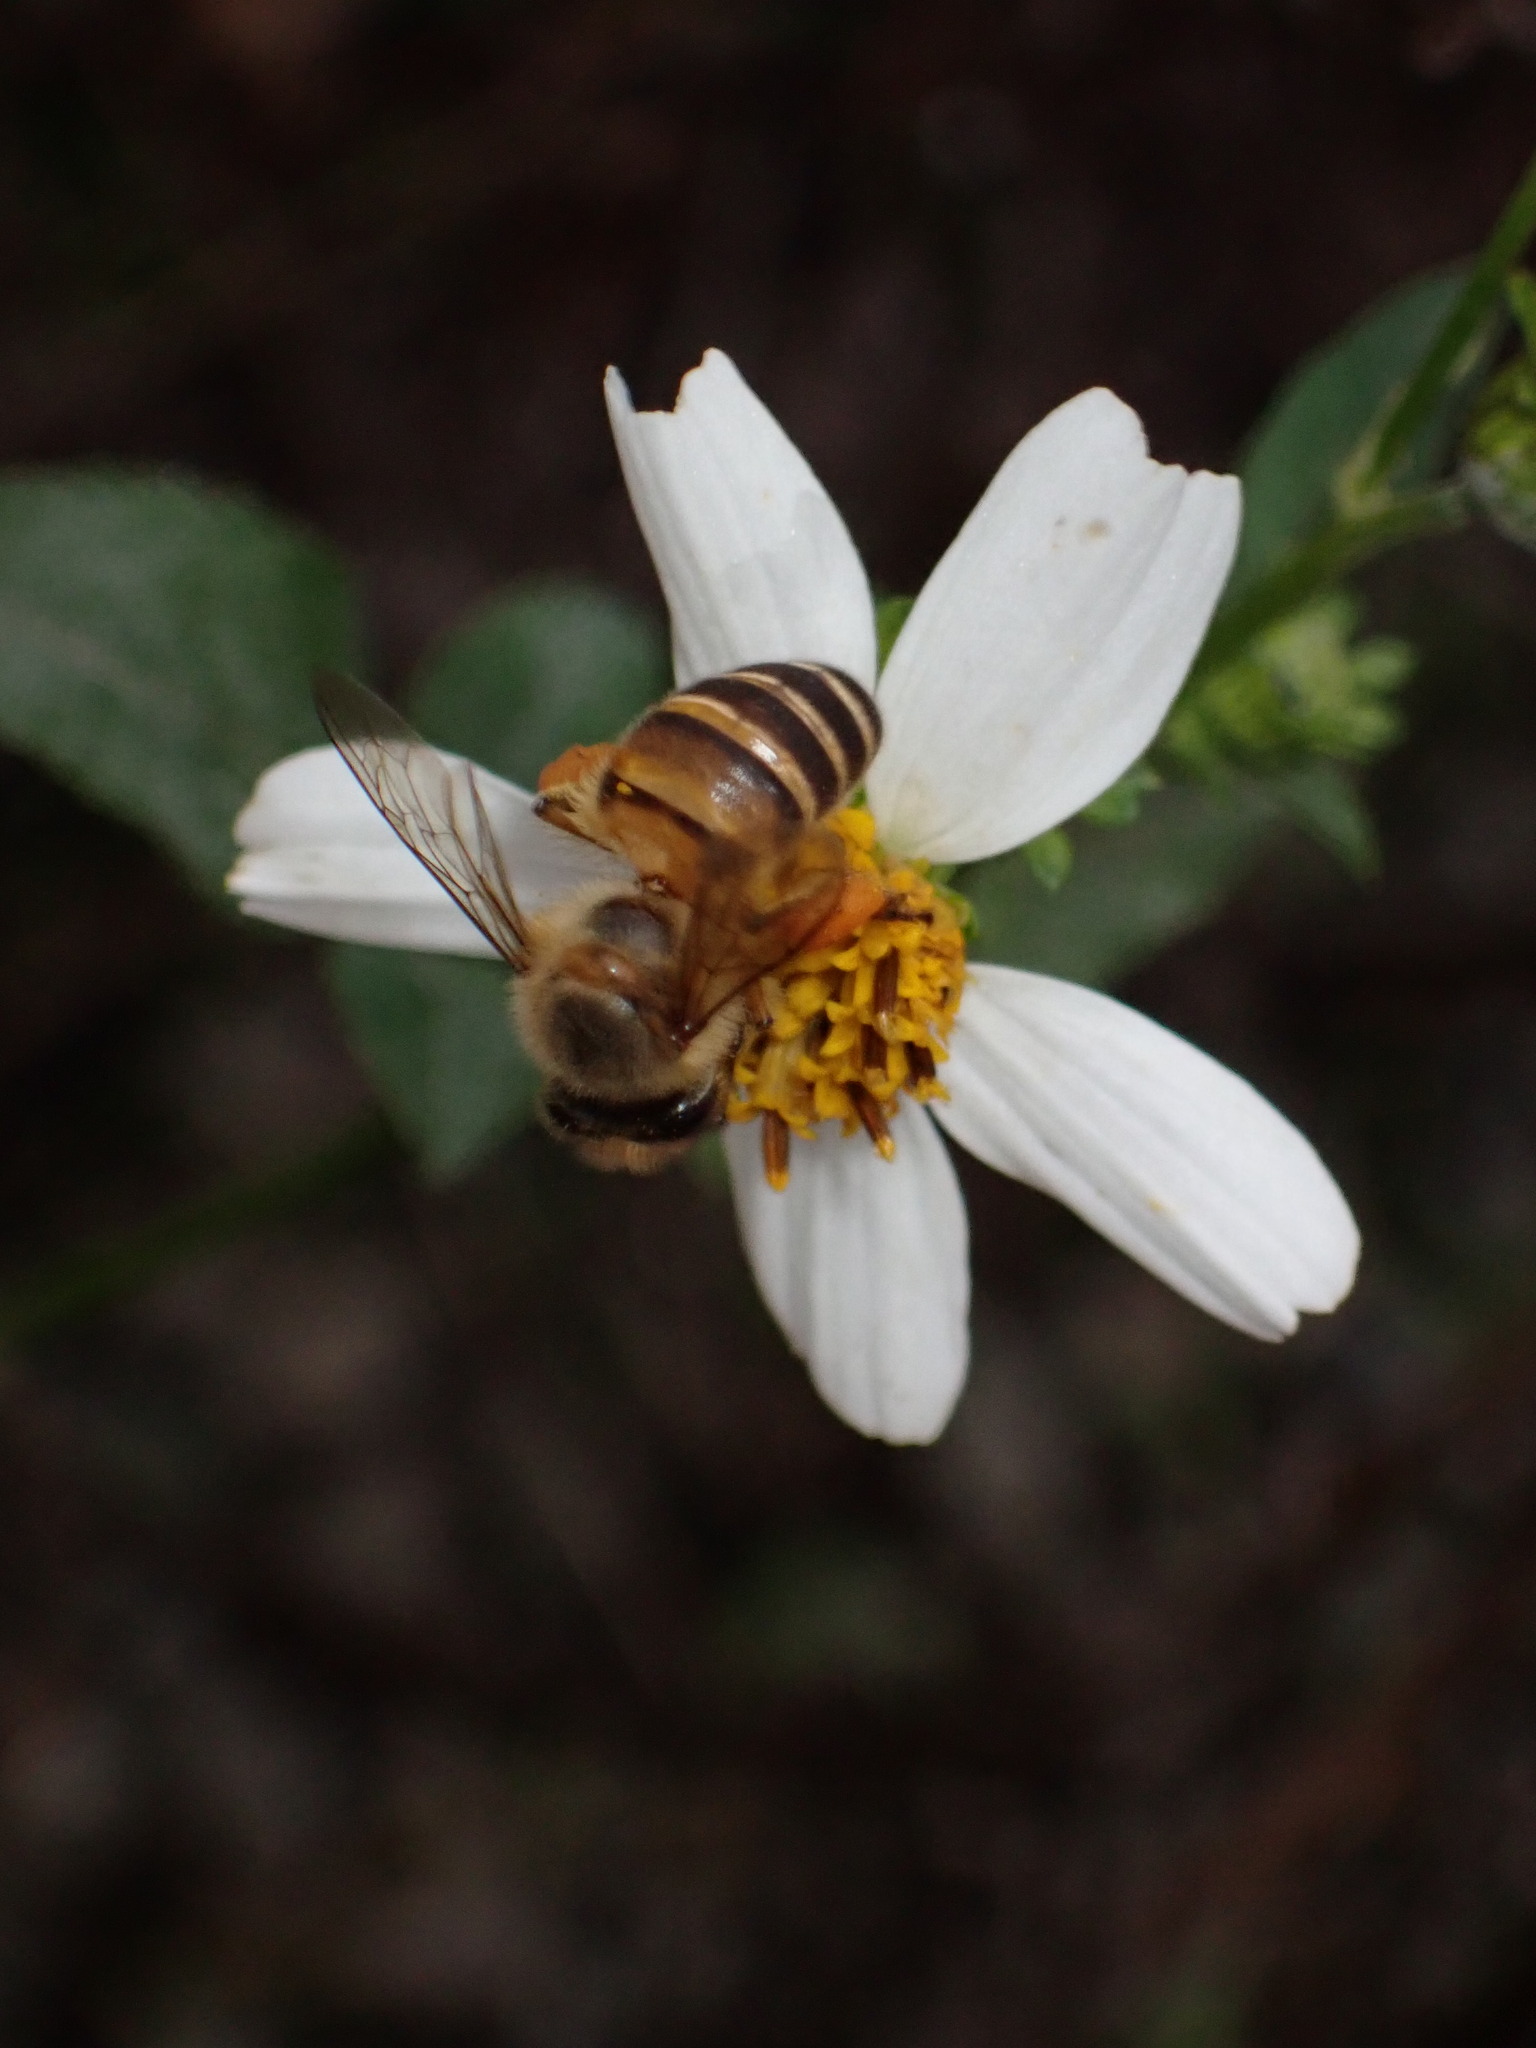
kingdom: Animalia
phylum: Arthropoda
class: Insecta
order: Hymenoptera
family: Apidae
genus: Apis
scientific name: Apis cerana
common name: Honey bee
